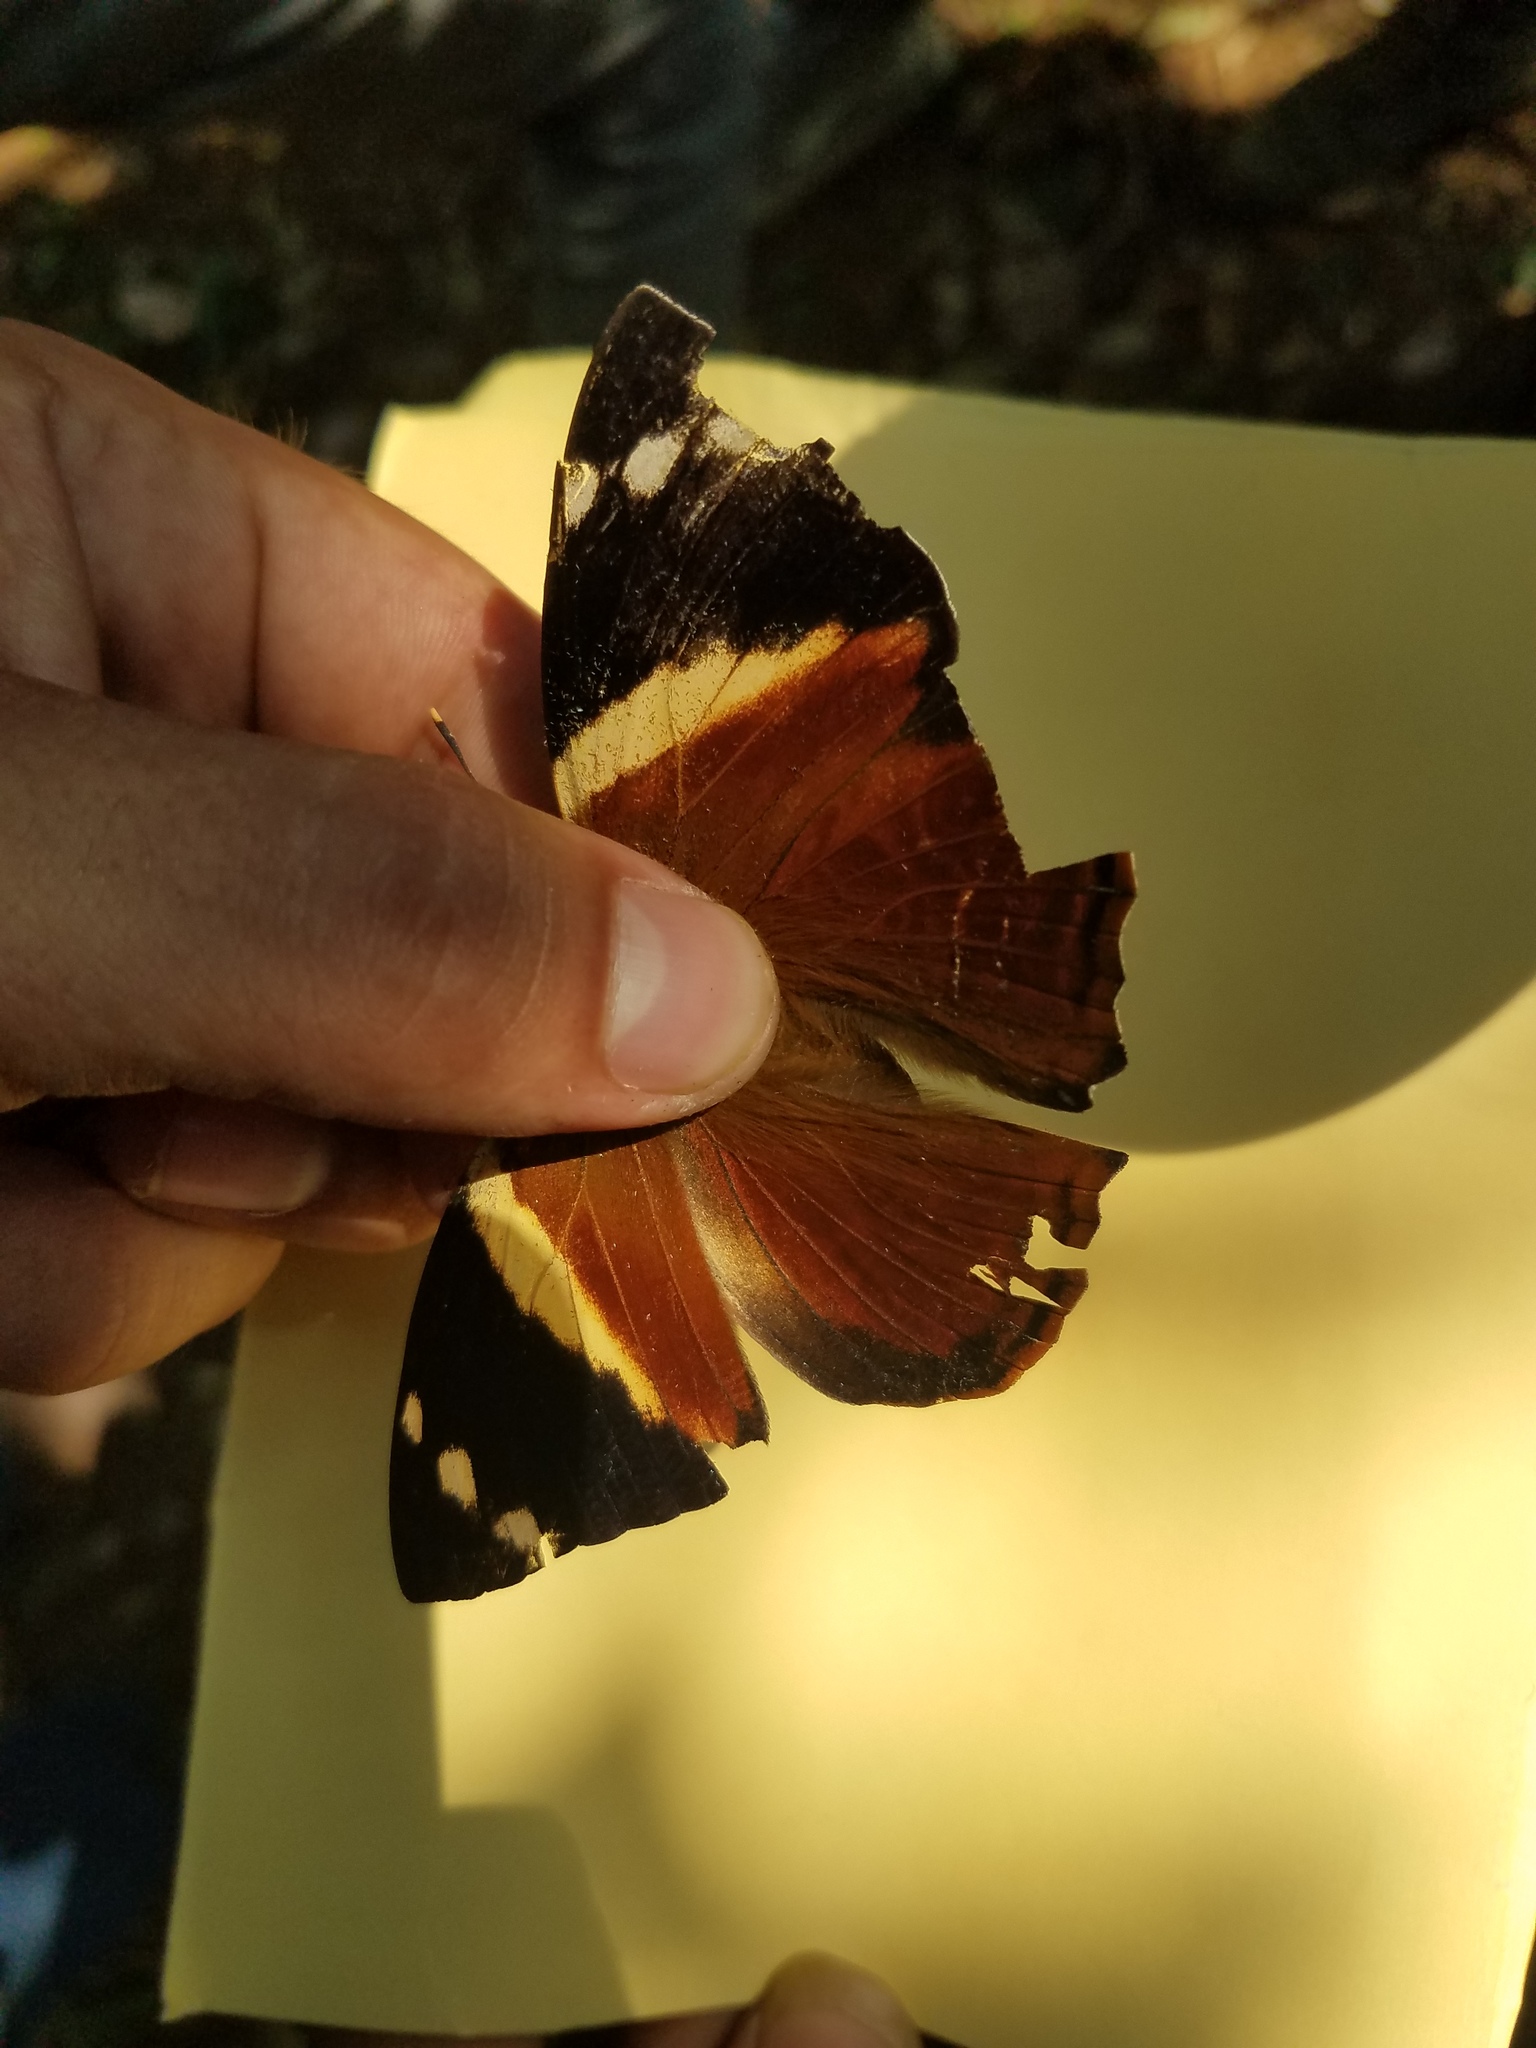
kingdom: Animalia
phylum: Arthropoda
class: Insecta
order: Lepidoptera
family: Nymphalidae
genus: Smyrna
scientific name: Smyrna blomfildia
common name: Blomfild's beauty
